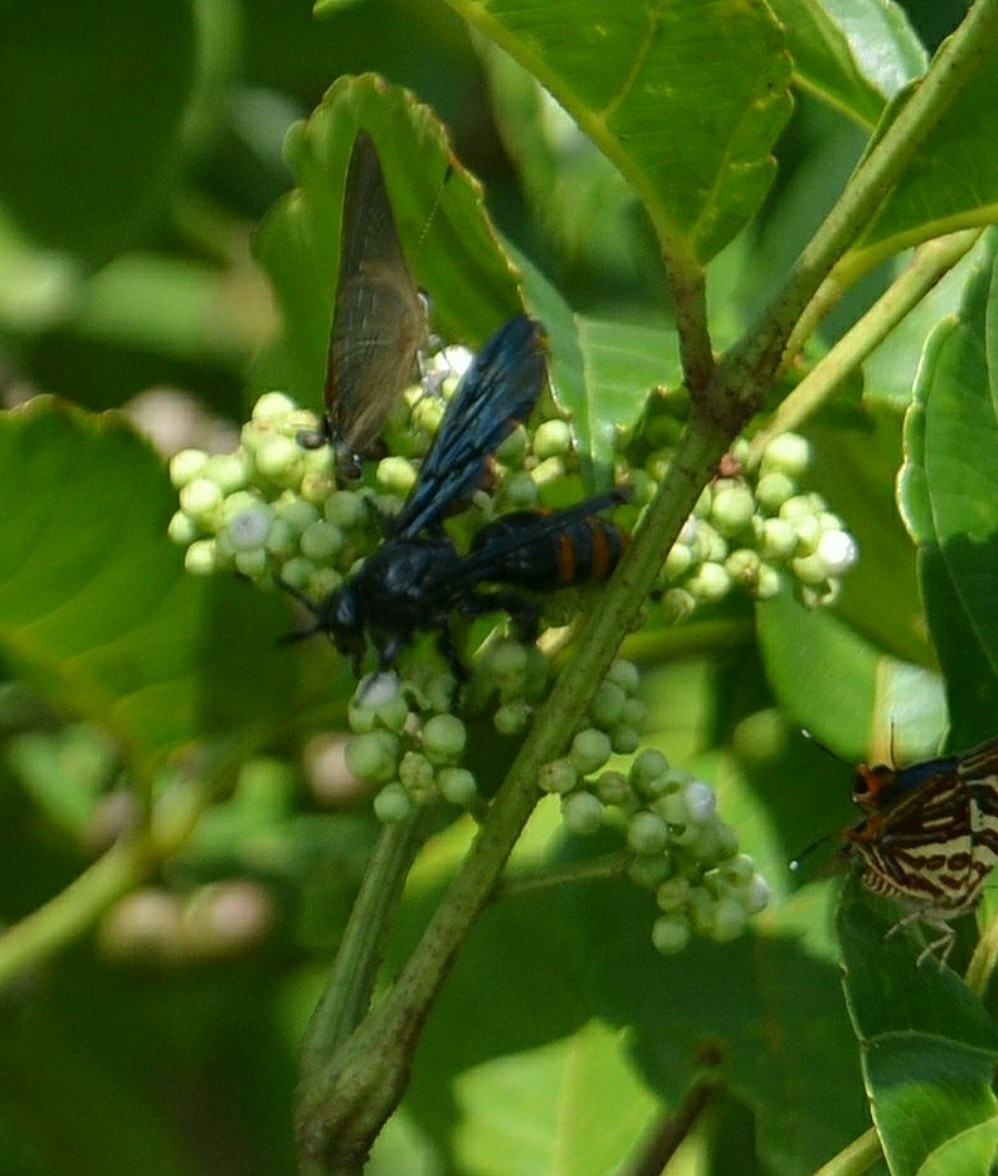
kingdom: Animalia
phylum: Arthropoda
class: Insecta
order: Hymenoptera
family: Scoliidae
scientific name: Scoliidae
